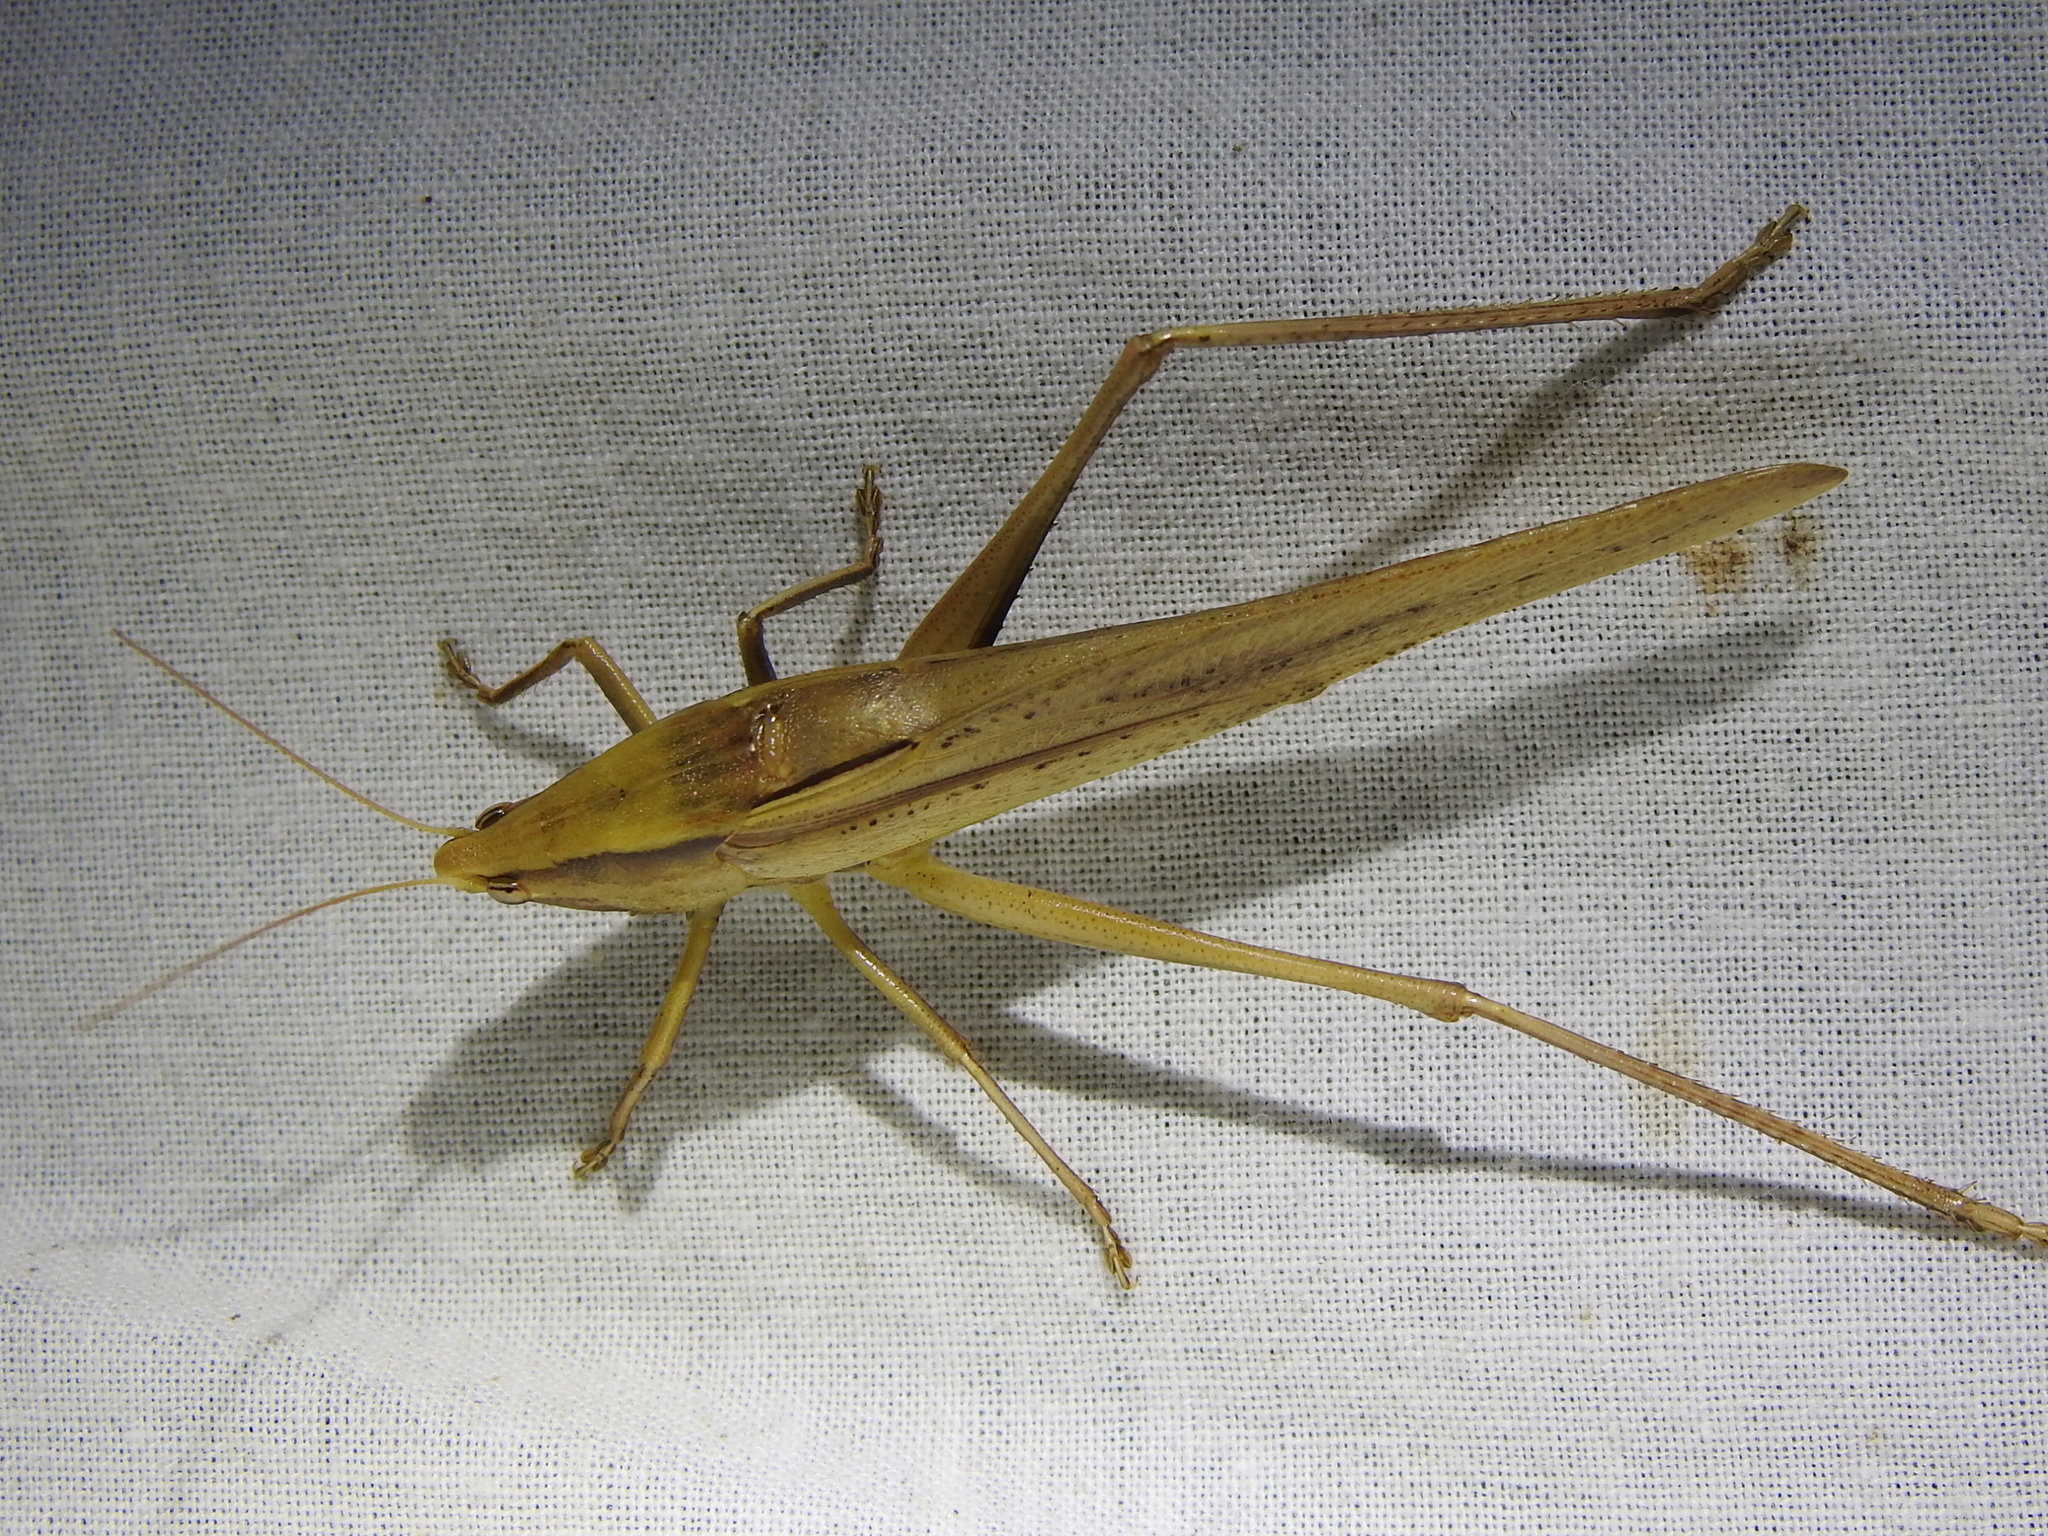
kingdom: Animalia
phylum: Arthropoda
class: Insecta
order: Orthoptera
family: Tettigoniidae
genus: Neoconocephalus
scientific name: Neoconocephalus triops
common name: Broad-tipped conehead
